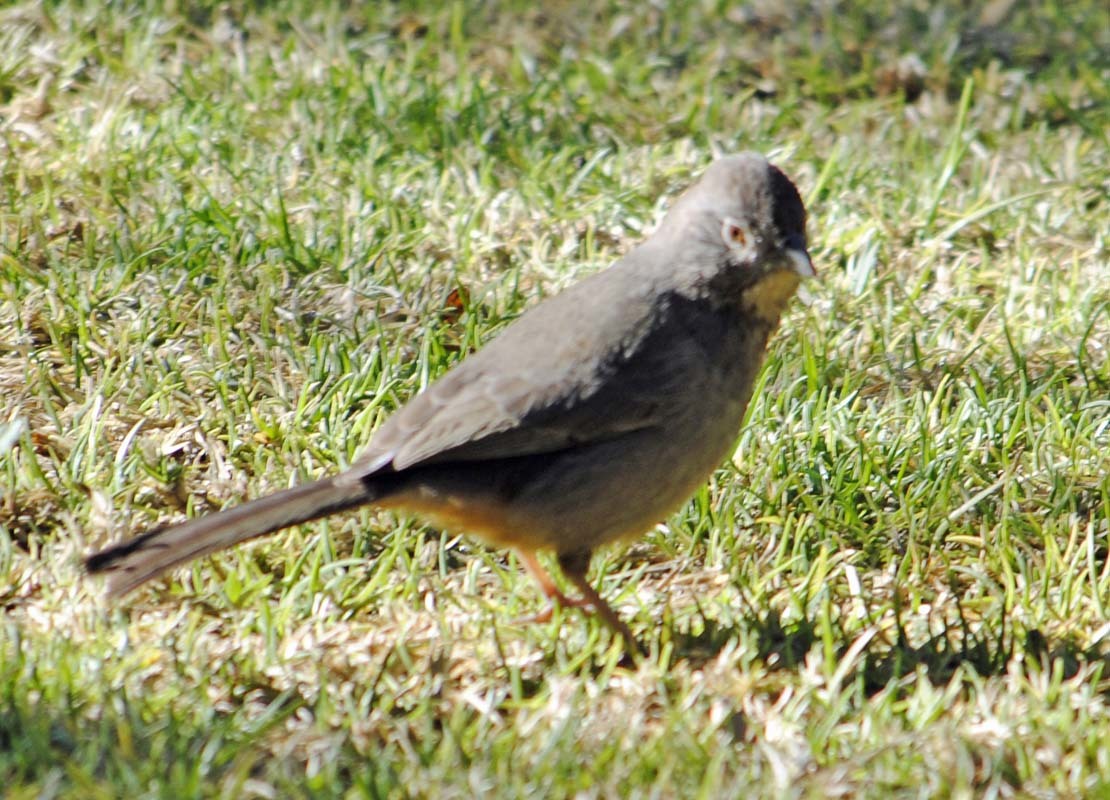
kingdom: Animalia
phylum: Chordata
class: Aves
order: Passeriformes
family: Passerellidae
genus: Melozone
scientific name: Melozone fusca
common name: Canyon towhee
